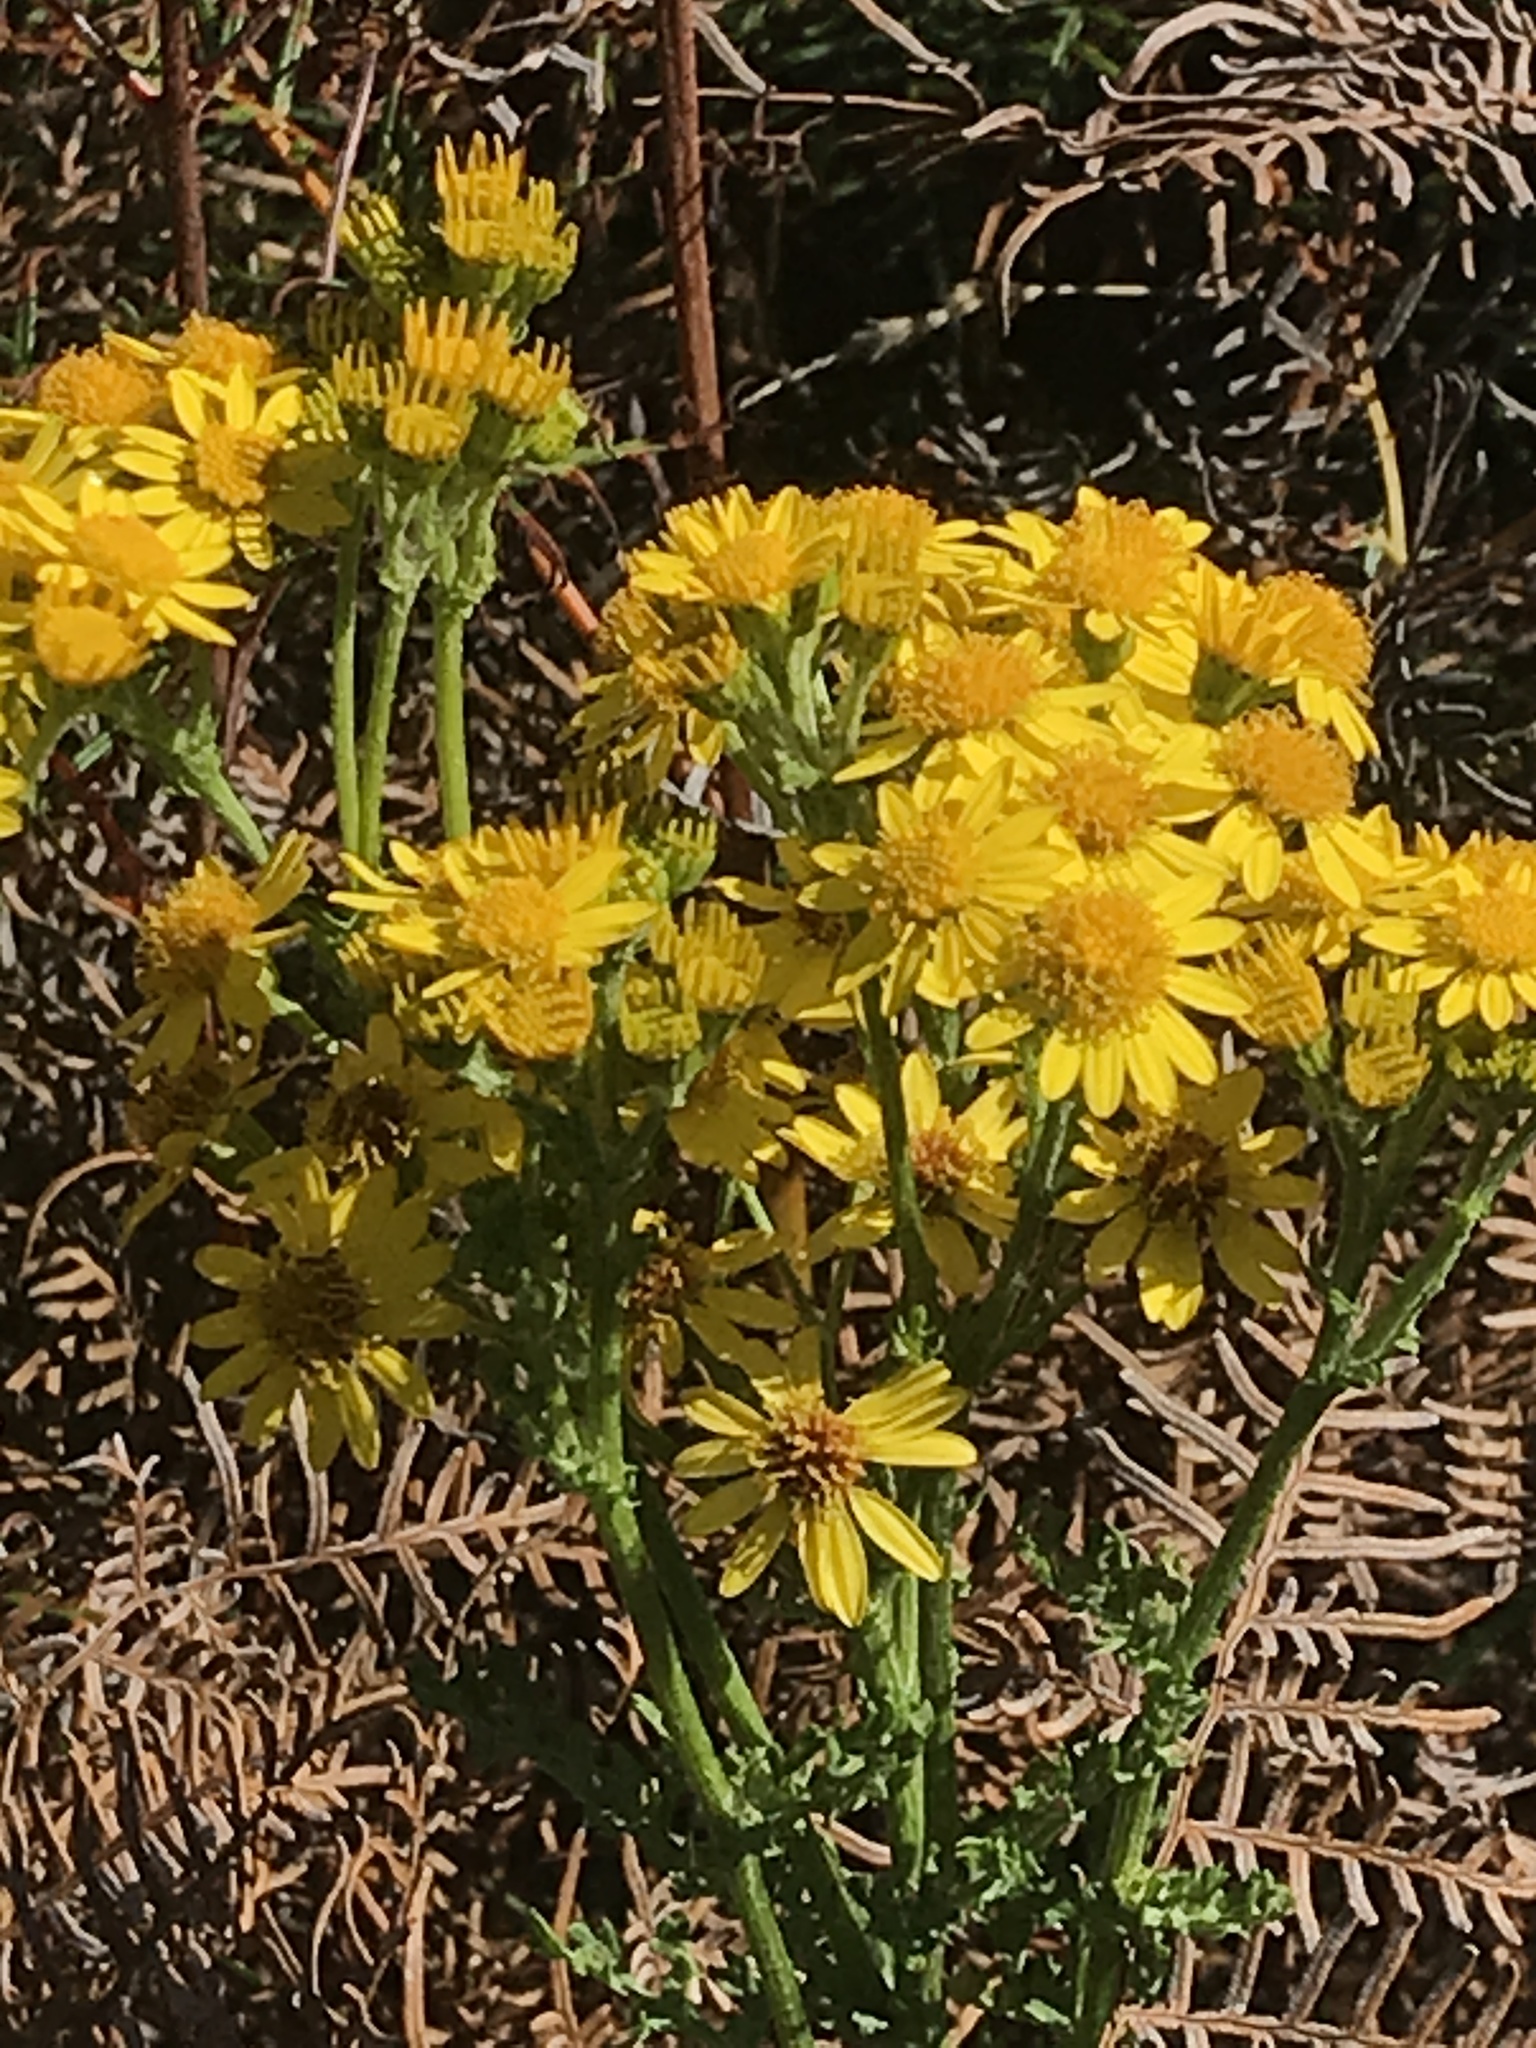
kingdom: Plantae
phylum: Tracheophyta
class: Magnoliopsida
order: Asterales
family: Asteraceae
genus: Jacobaea
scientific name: Jacobaea vulgaris
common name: Stinking willie
